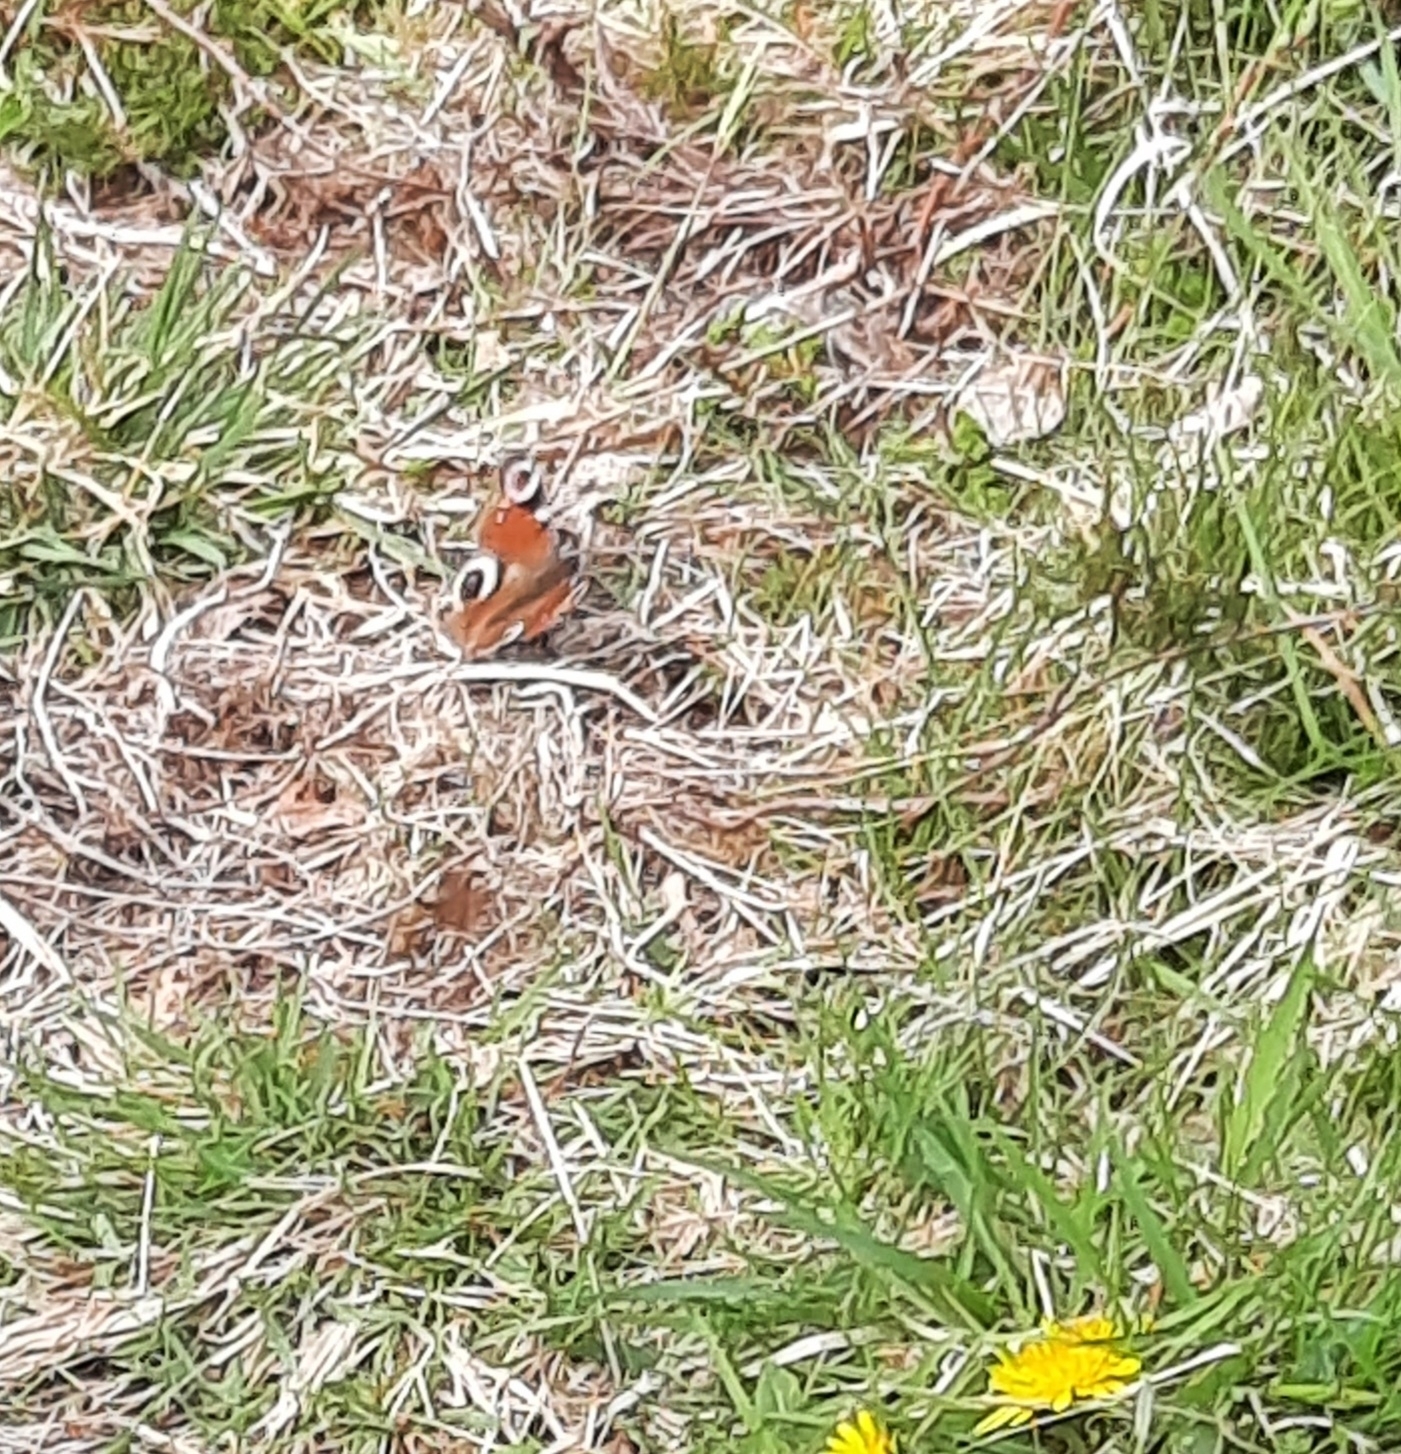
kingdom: Animalia
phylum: Arthropoda
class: Insecta
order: Lepidoptera
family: Nymphalidae
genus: Aglais
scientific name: Aglais io
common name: Peacock
